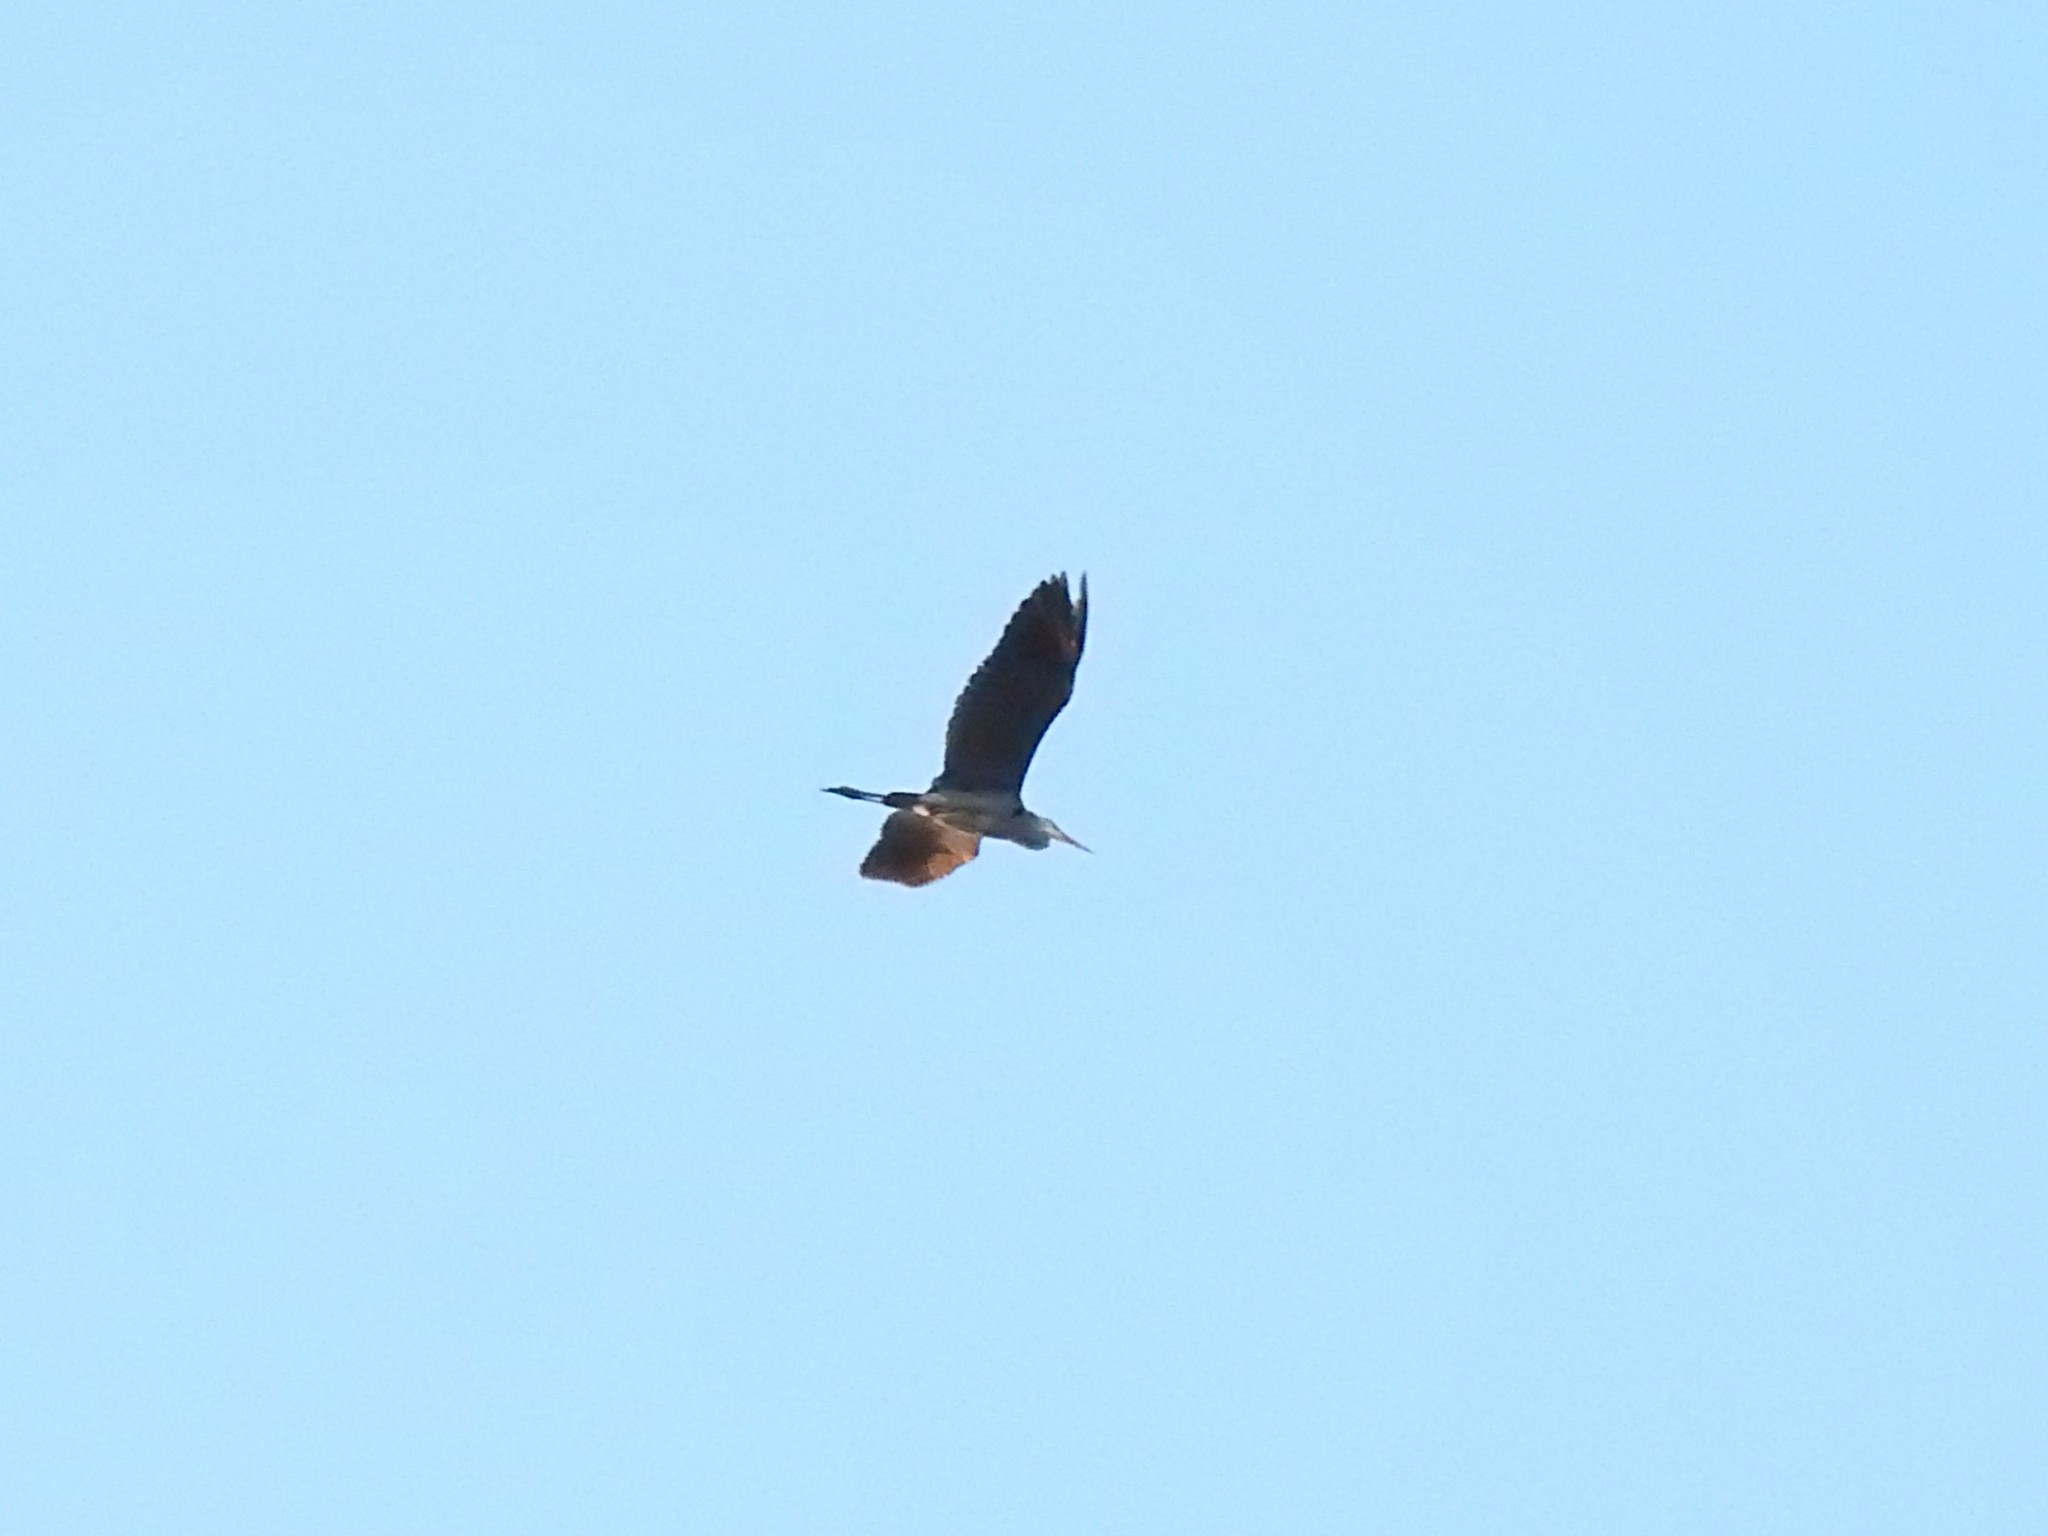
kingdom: Animalia
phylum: Chordata
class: Aves
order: Pelecaniformes
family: Ardeidae
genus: Ardea
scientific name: Ardea herodias
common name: Great blue heron
